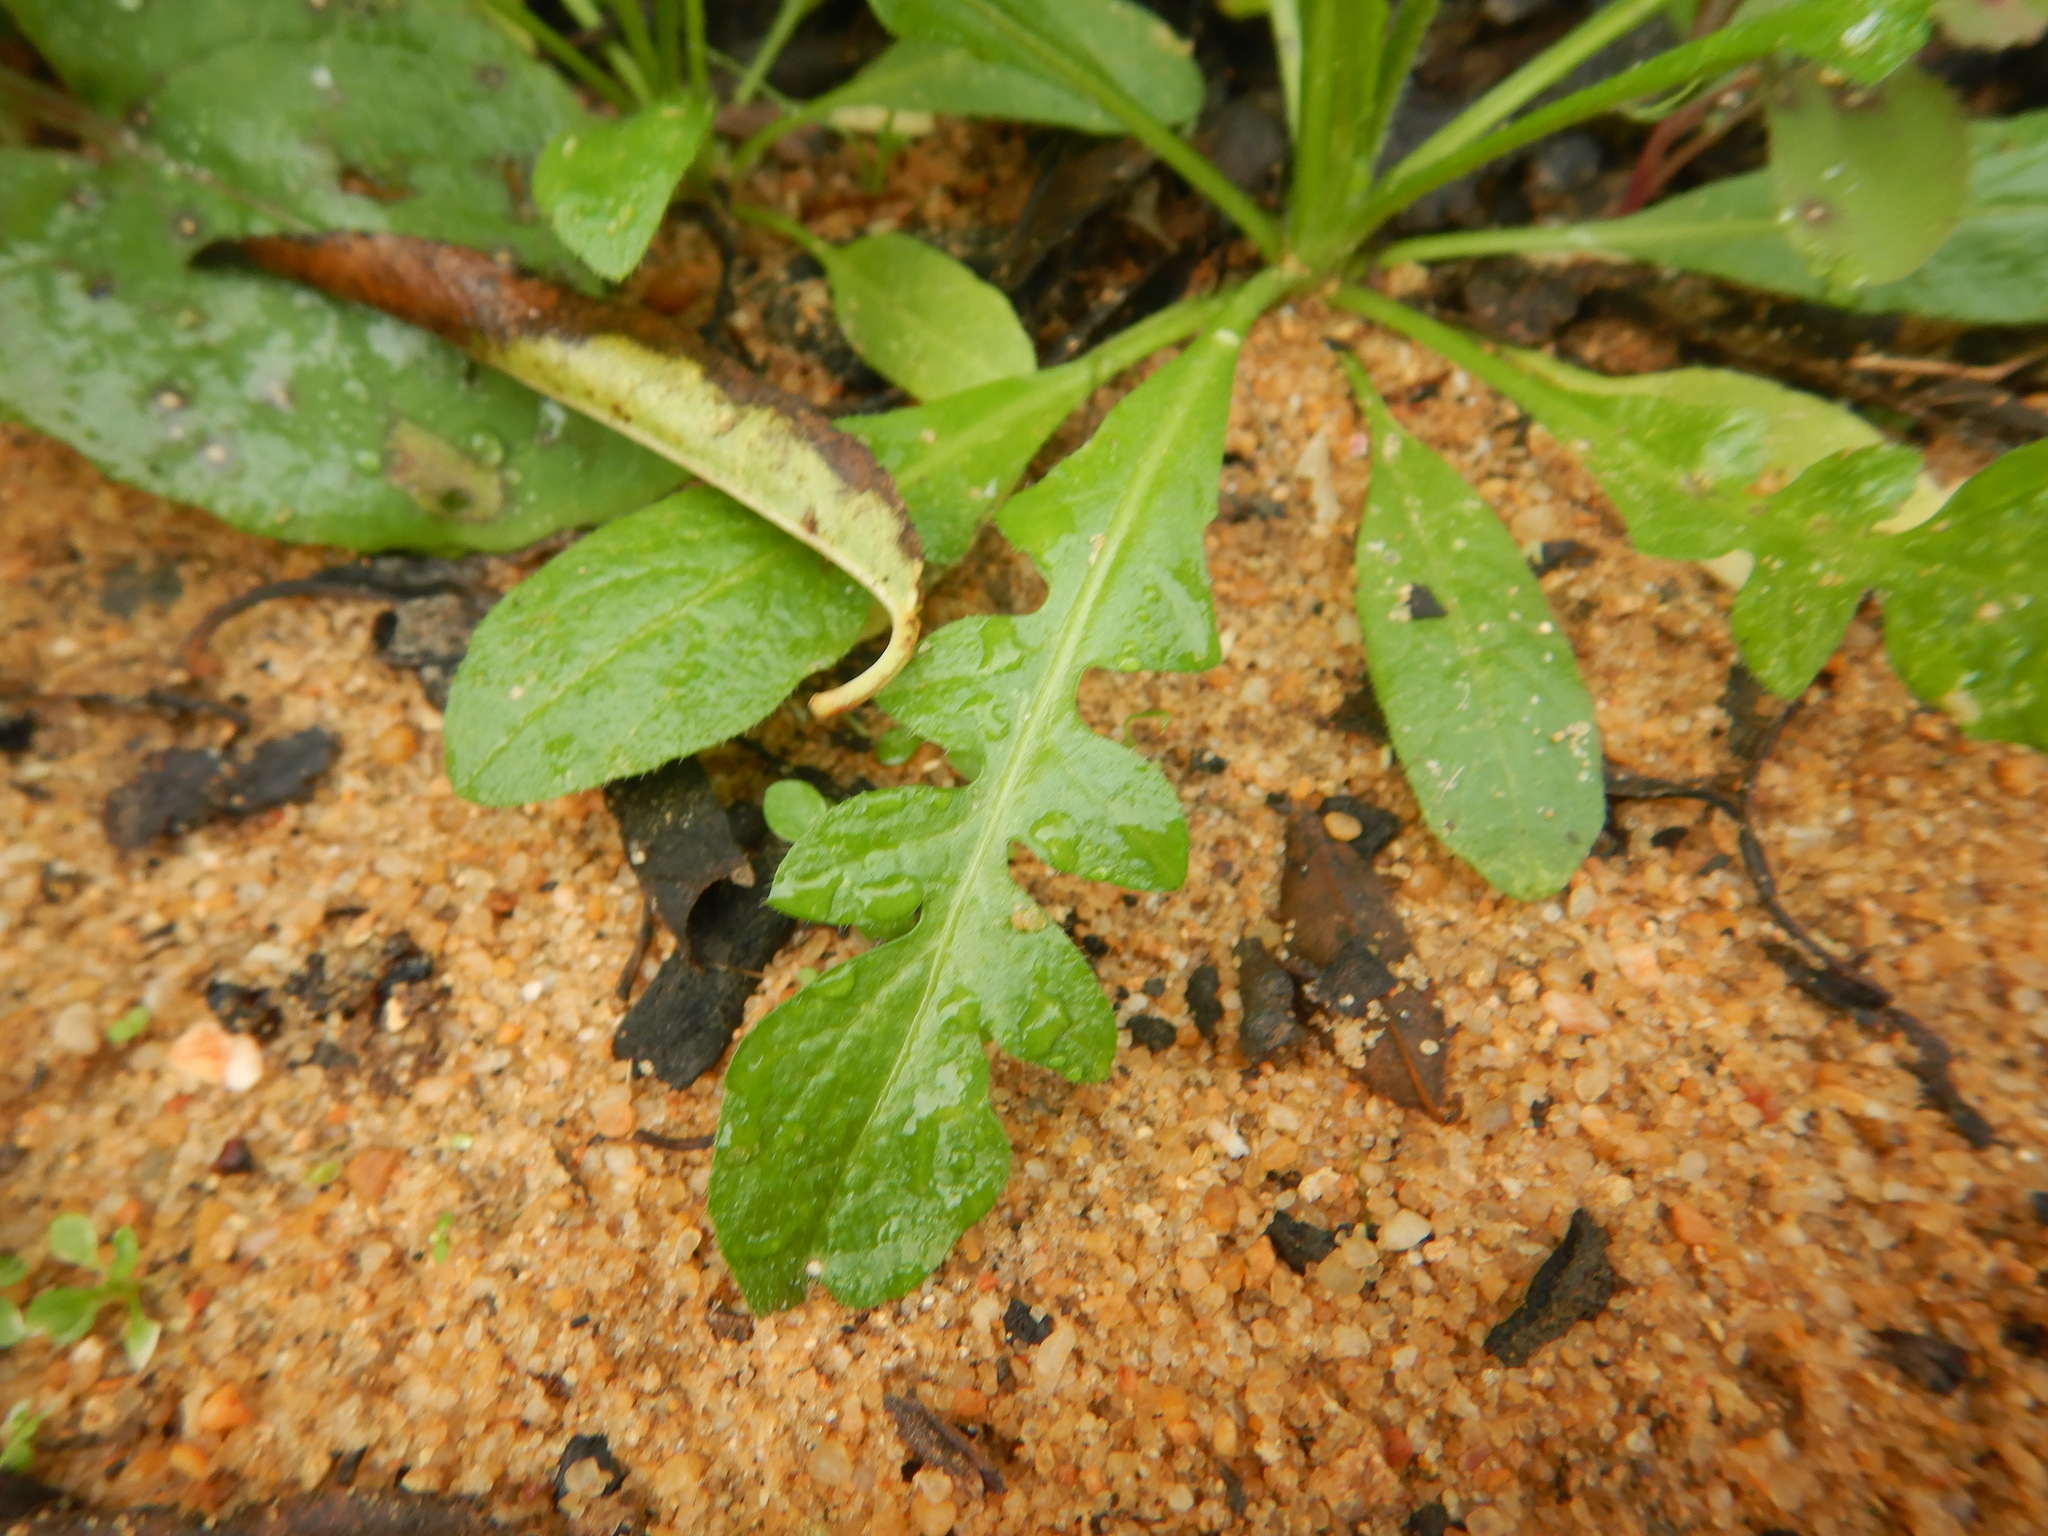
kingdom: Plantae
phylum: Tracheophyta
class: Magnoliopsida
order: Brassicales
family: Brassicaceae
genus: Capsella
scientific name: Capsella bursa-pastoris
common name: Shepherd's purse
